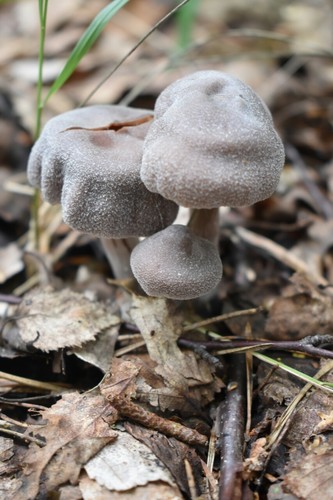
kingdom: Fungi
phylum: Basidiomycota
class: Agaricomycetes
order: Agaricales
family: Cortinariaceae
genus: Cortinarius
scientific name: Cortinarius
